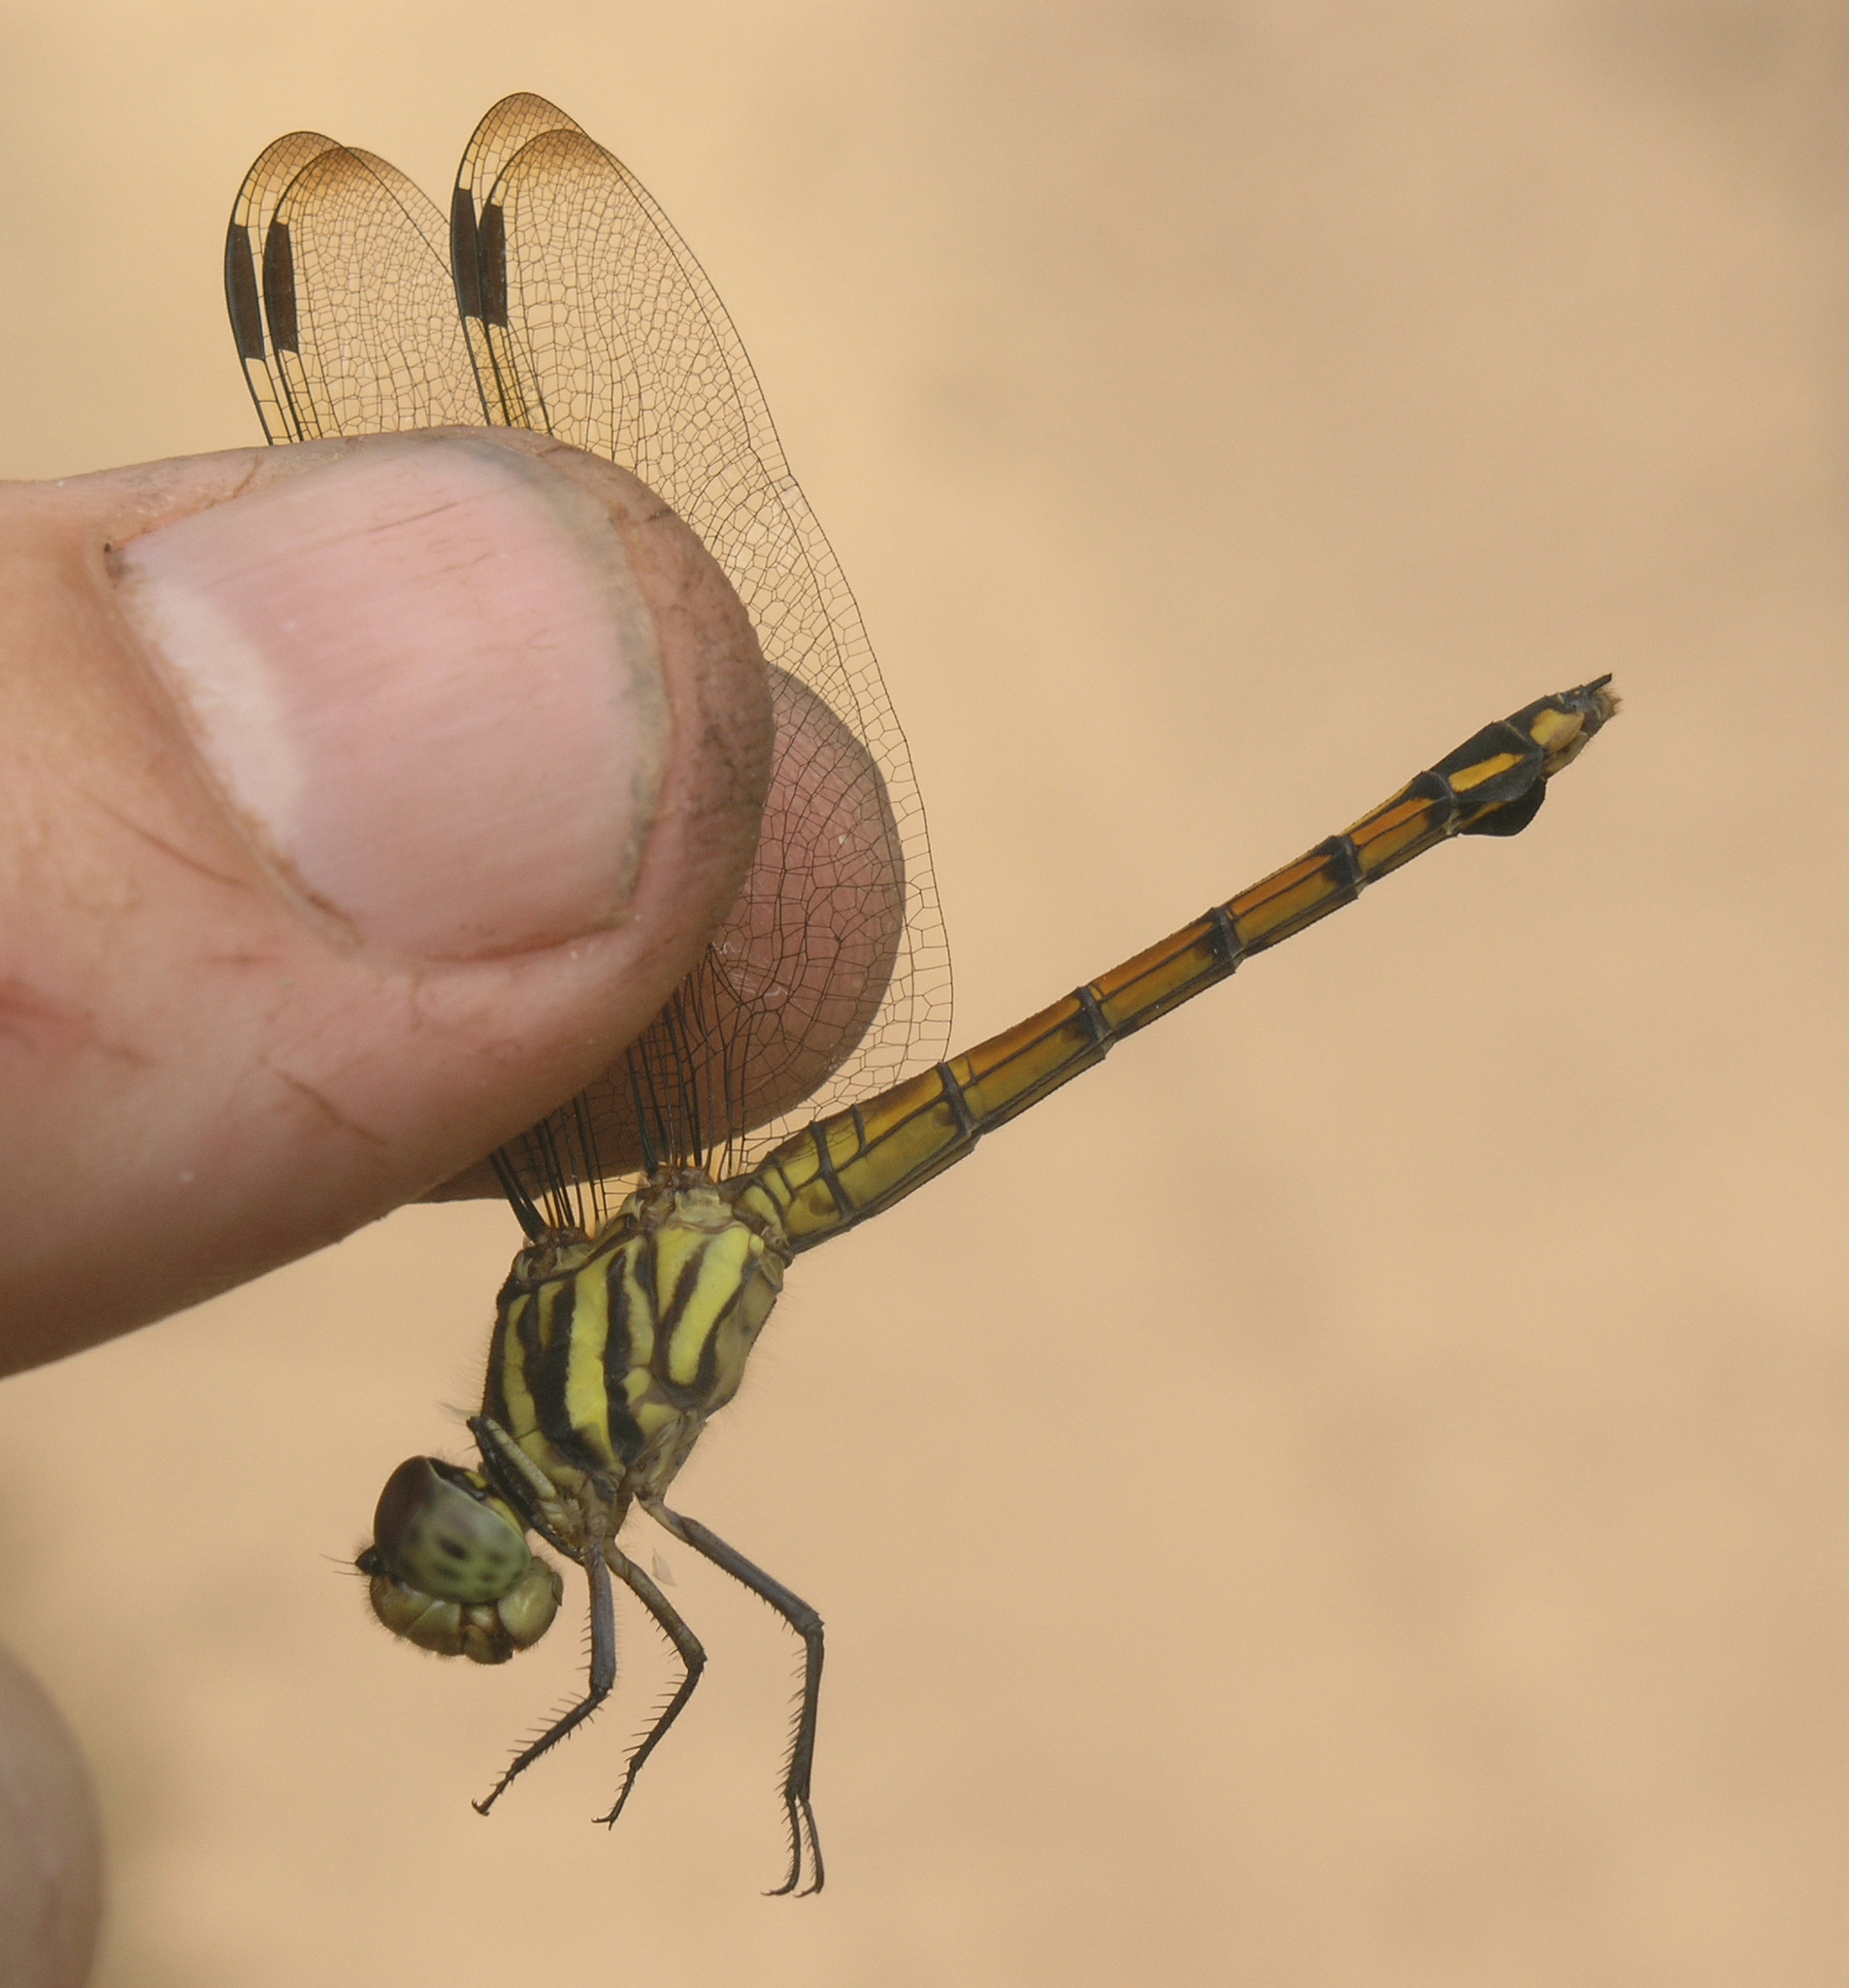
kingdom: Animalia
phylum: Arthropoda
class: Insecta
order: Odonata
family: Libellulidae
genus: Potamarcha
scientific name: Potamarcha congener
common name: Blue chaser
